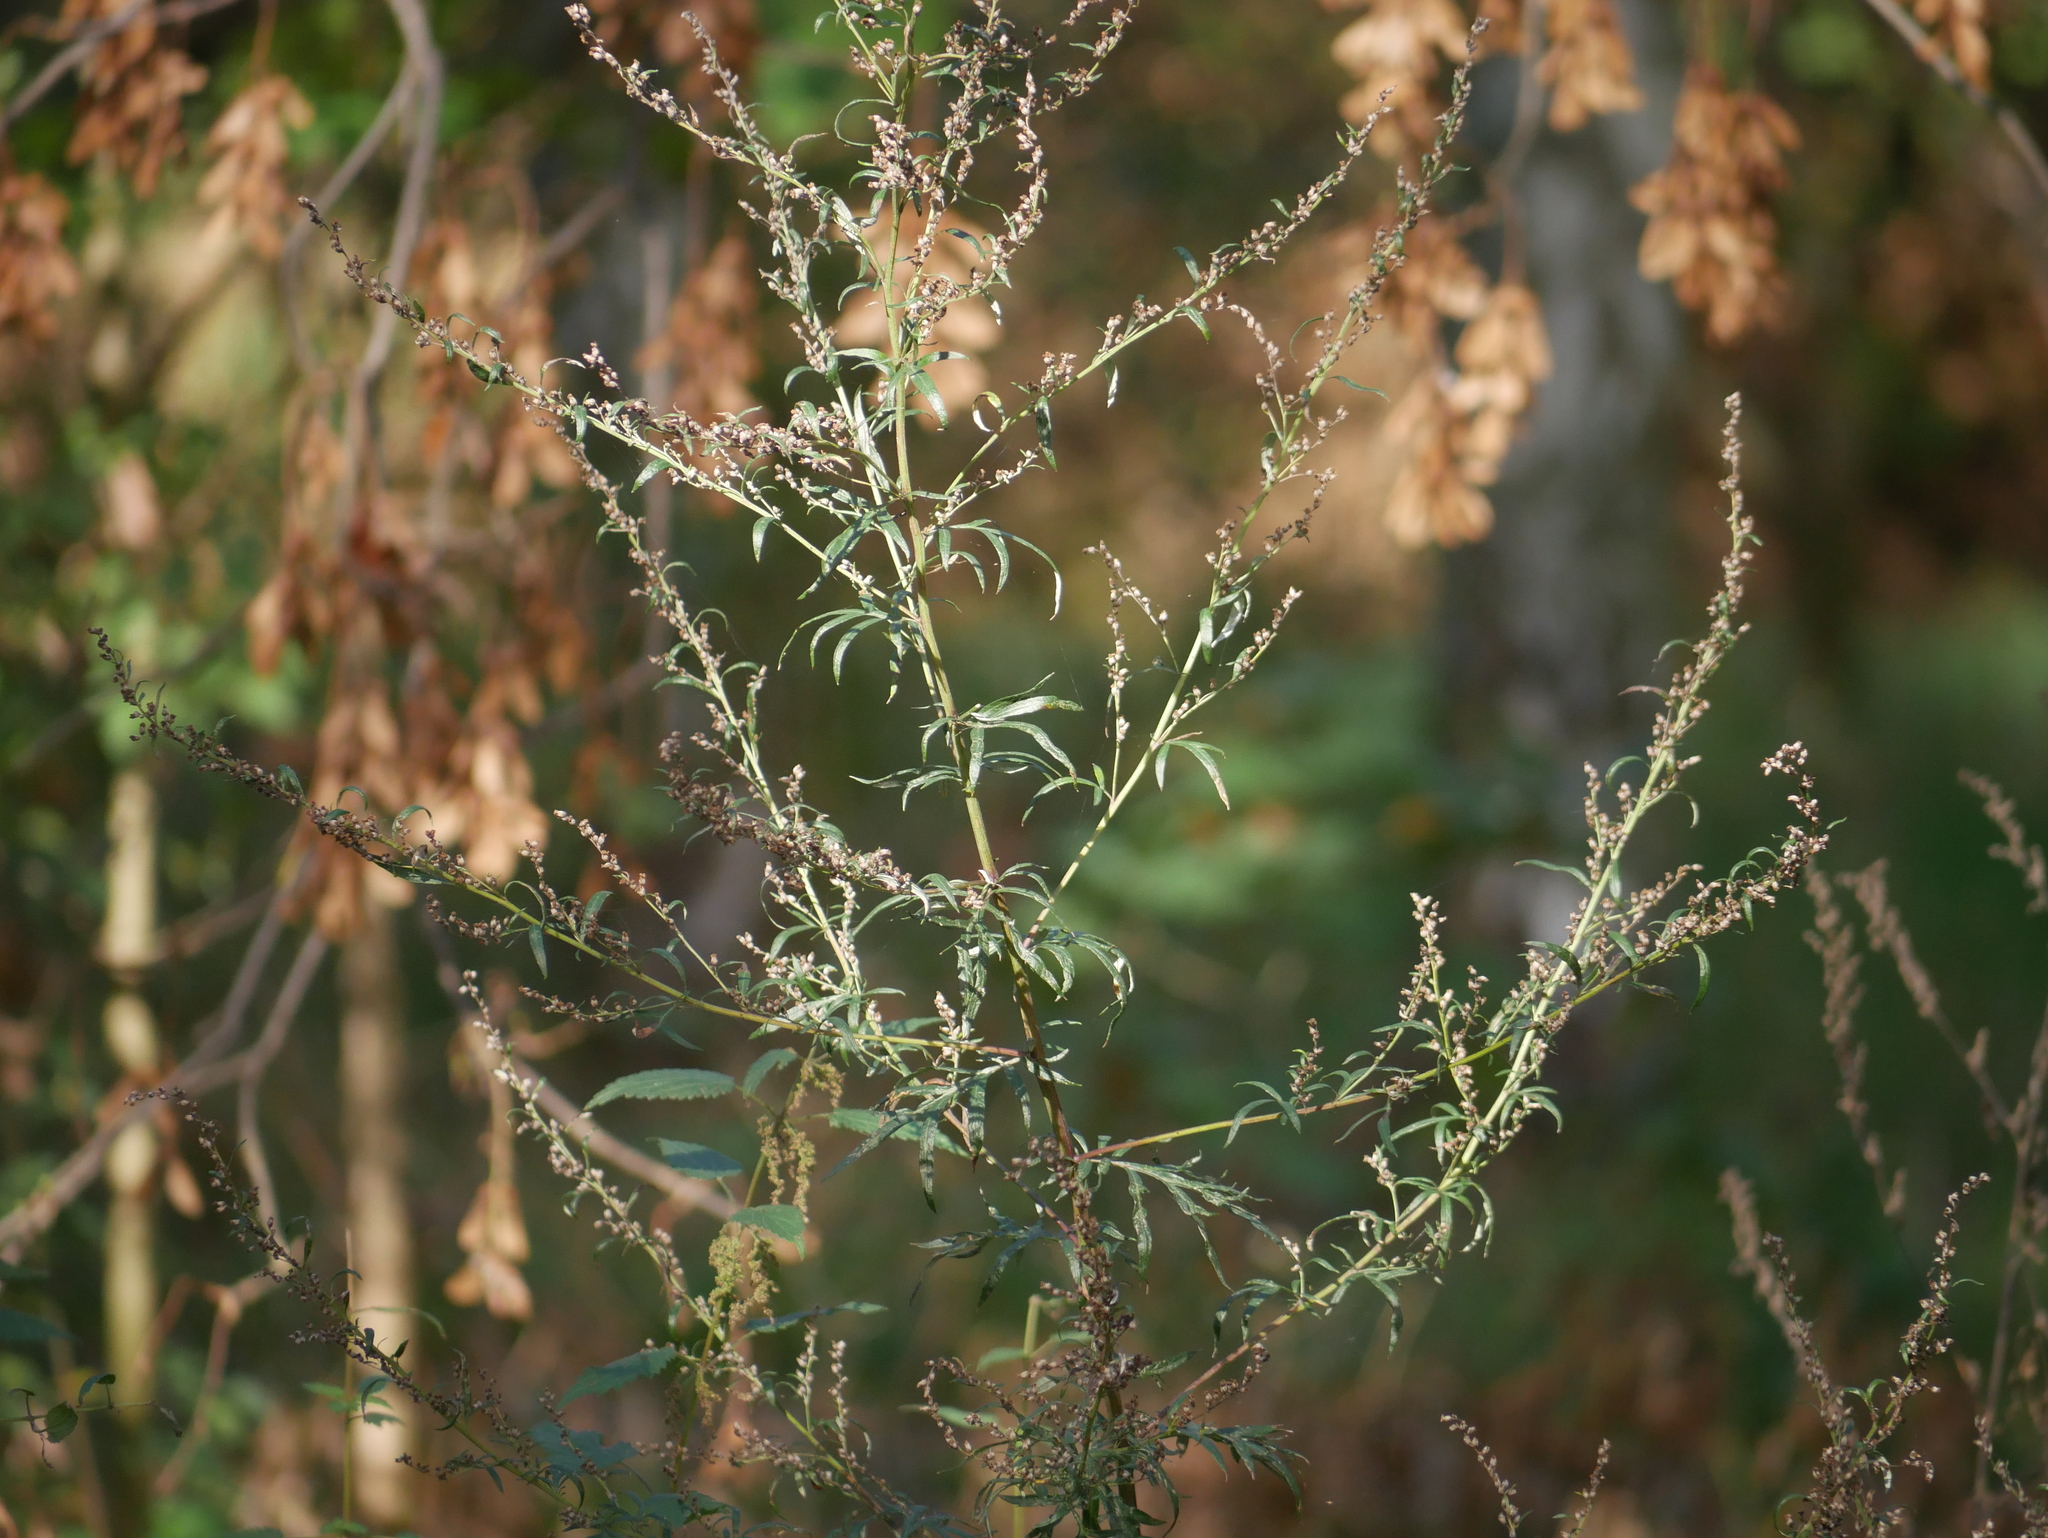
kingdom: Plantae
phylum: Tracheophyta
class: Magnoliopsida
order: Asterales
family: Asteraceae
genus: Artemisia
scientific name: Artemisia vulgaris
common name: Mugwort
